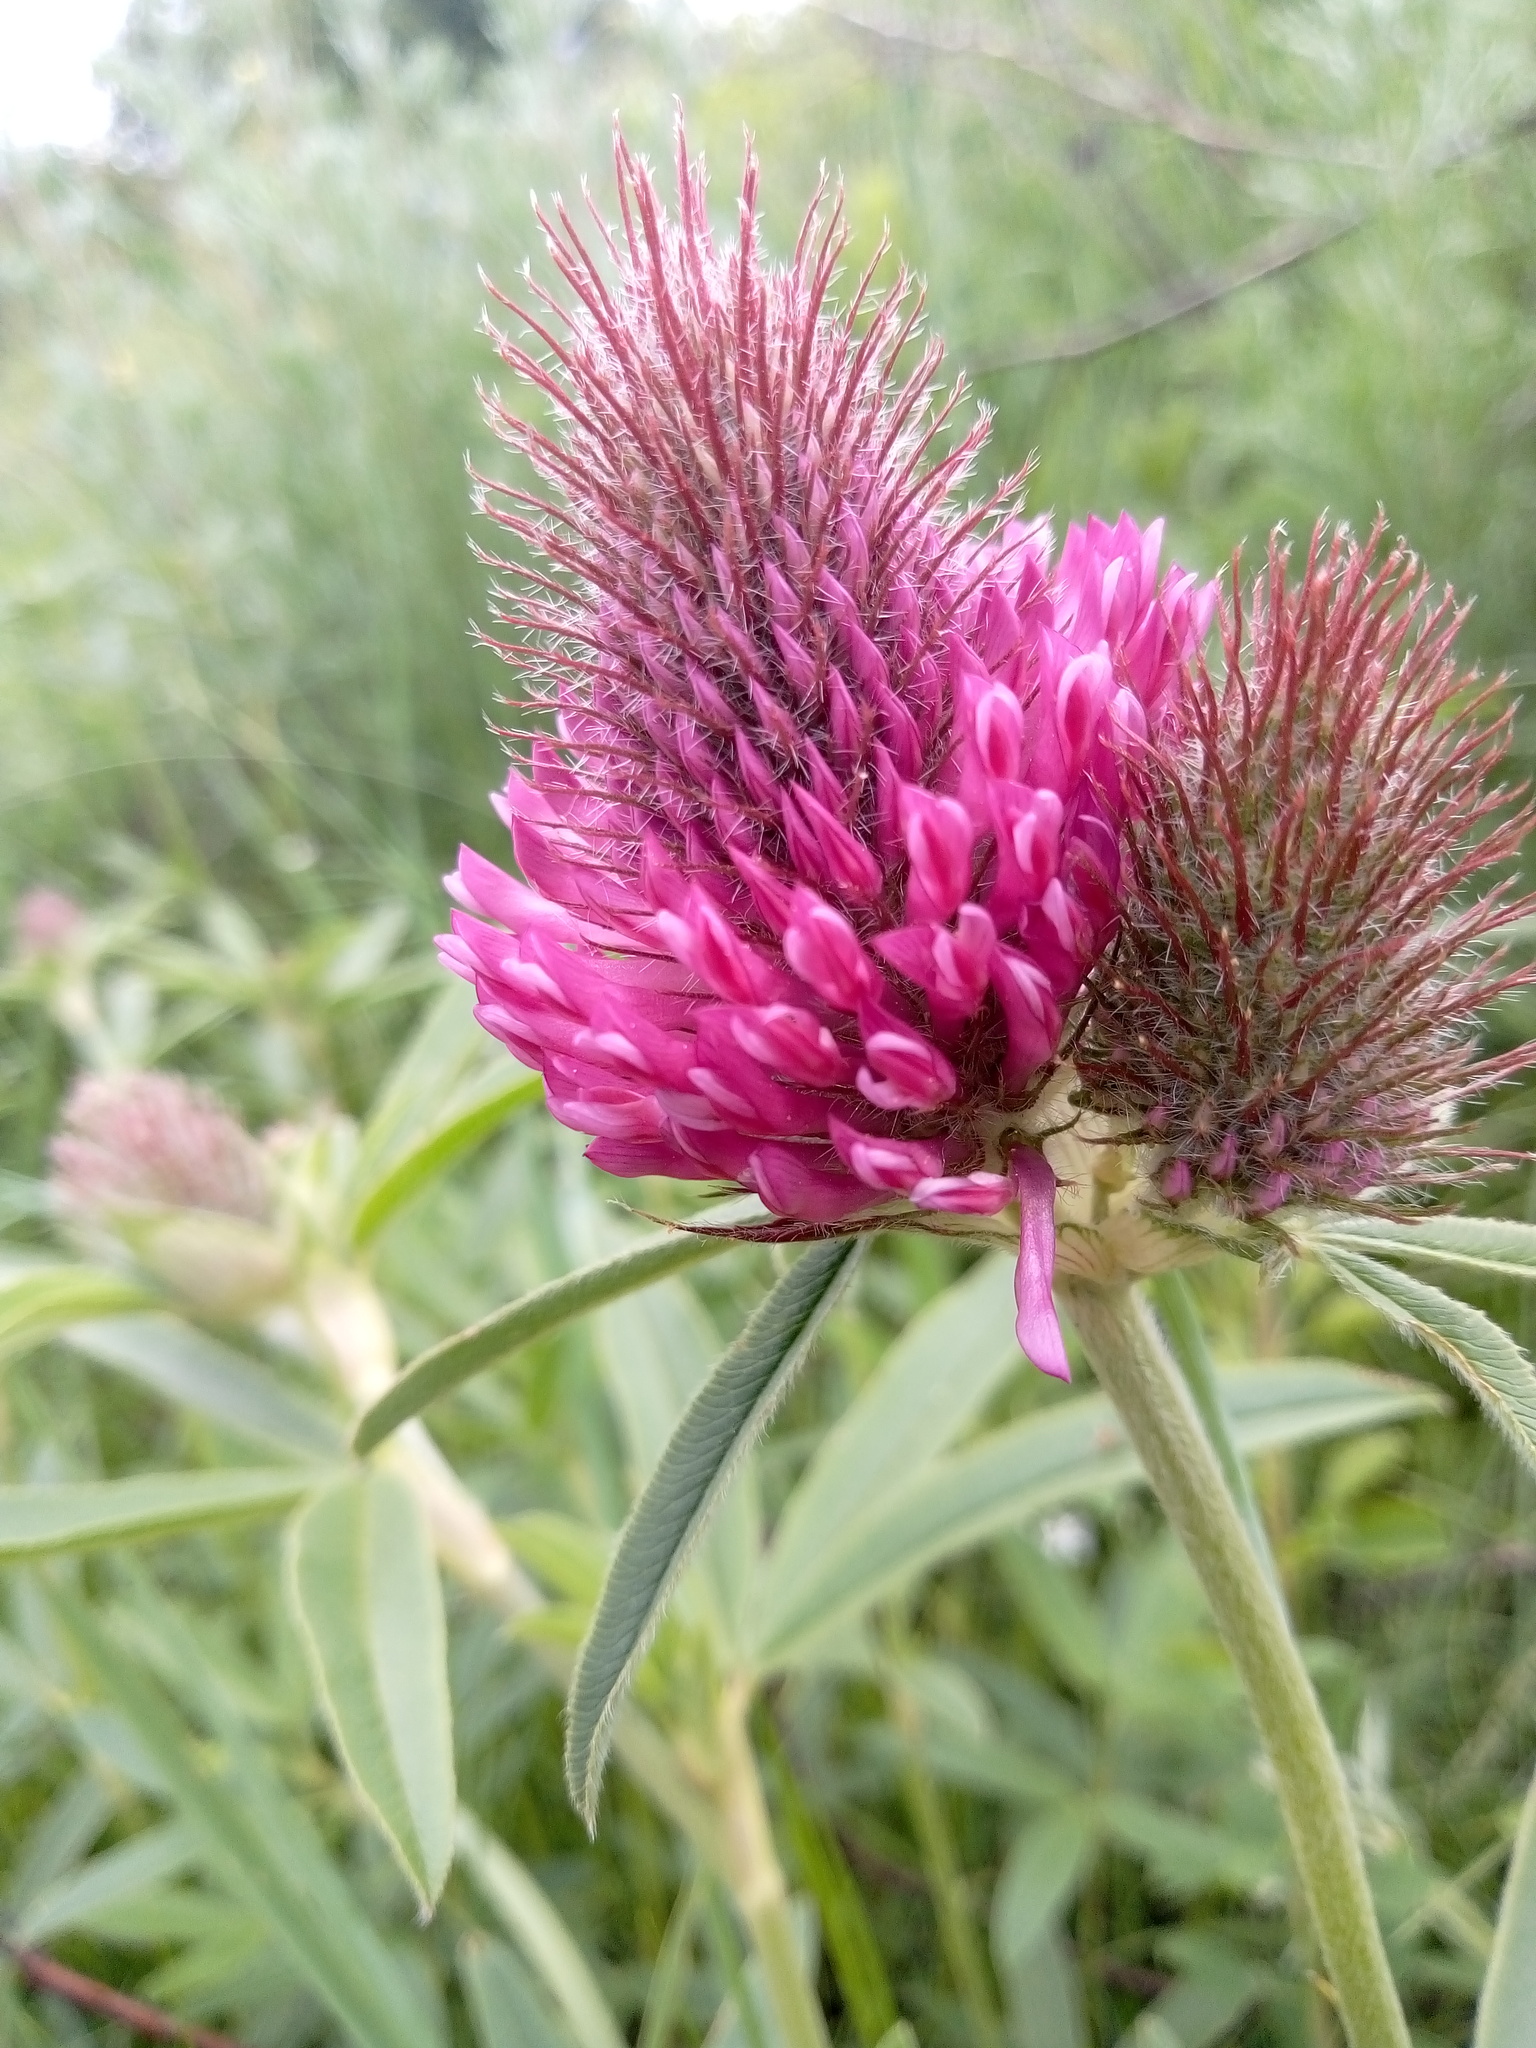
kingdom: Plantae
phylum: Tracheophyta
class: Magnoliopsida
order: Fabales
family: Fabaceae
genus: Trifolium
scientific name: Trifolium alpestre
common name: Owl-head clover
